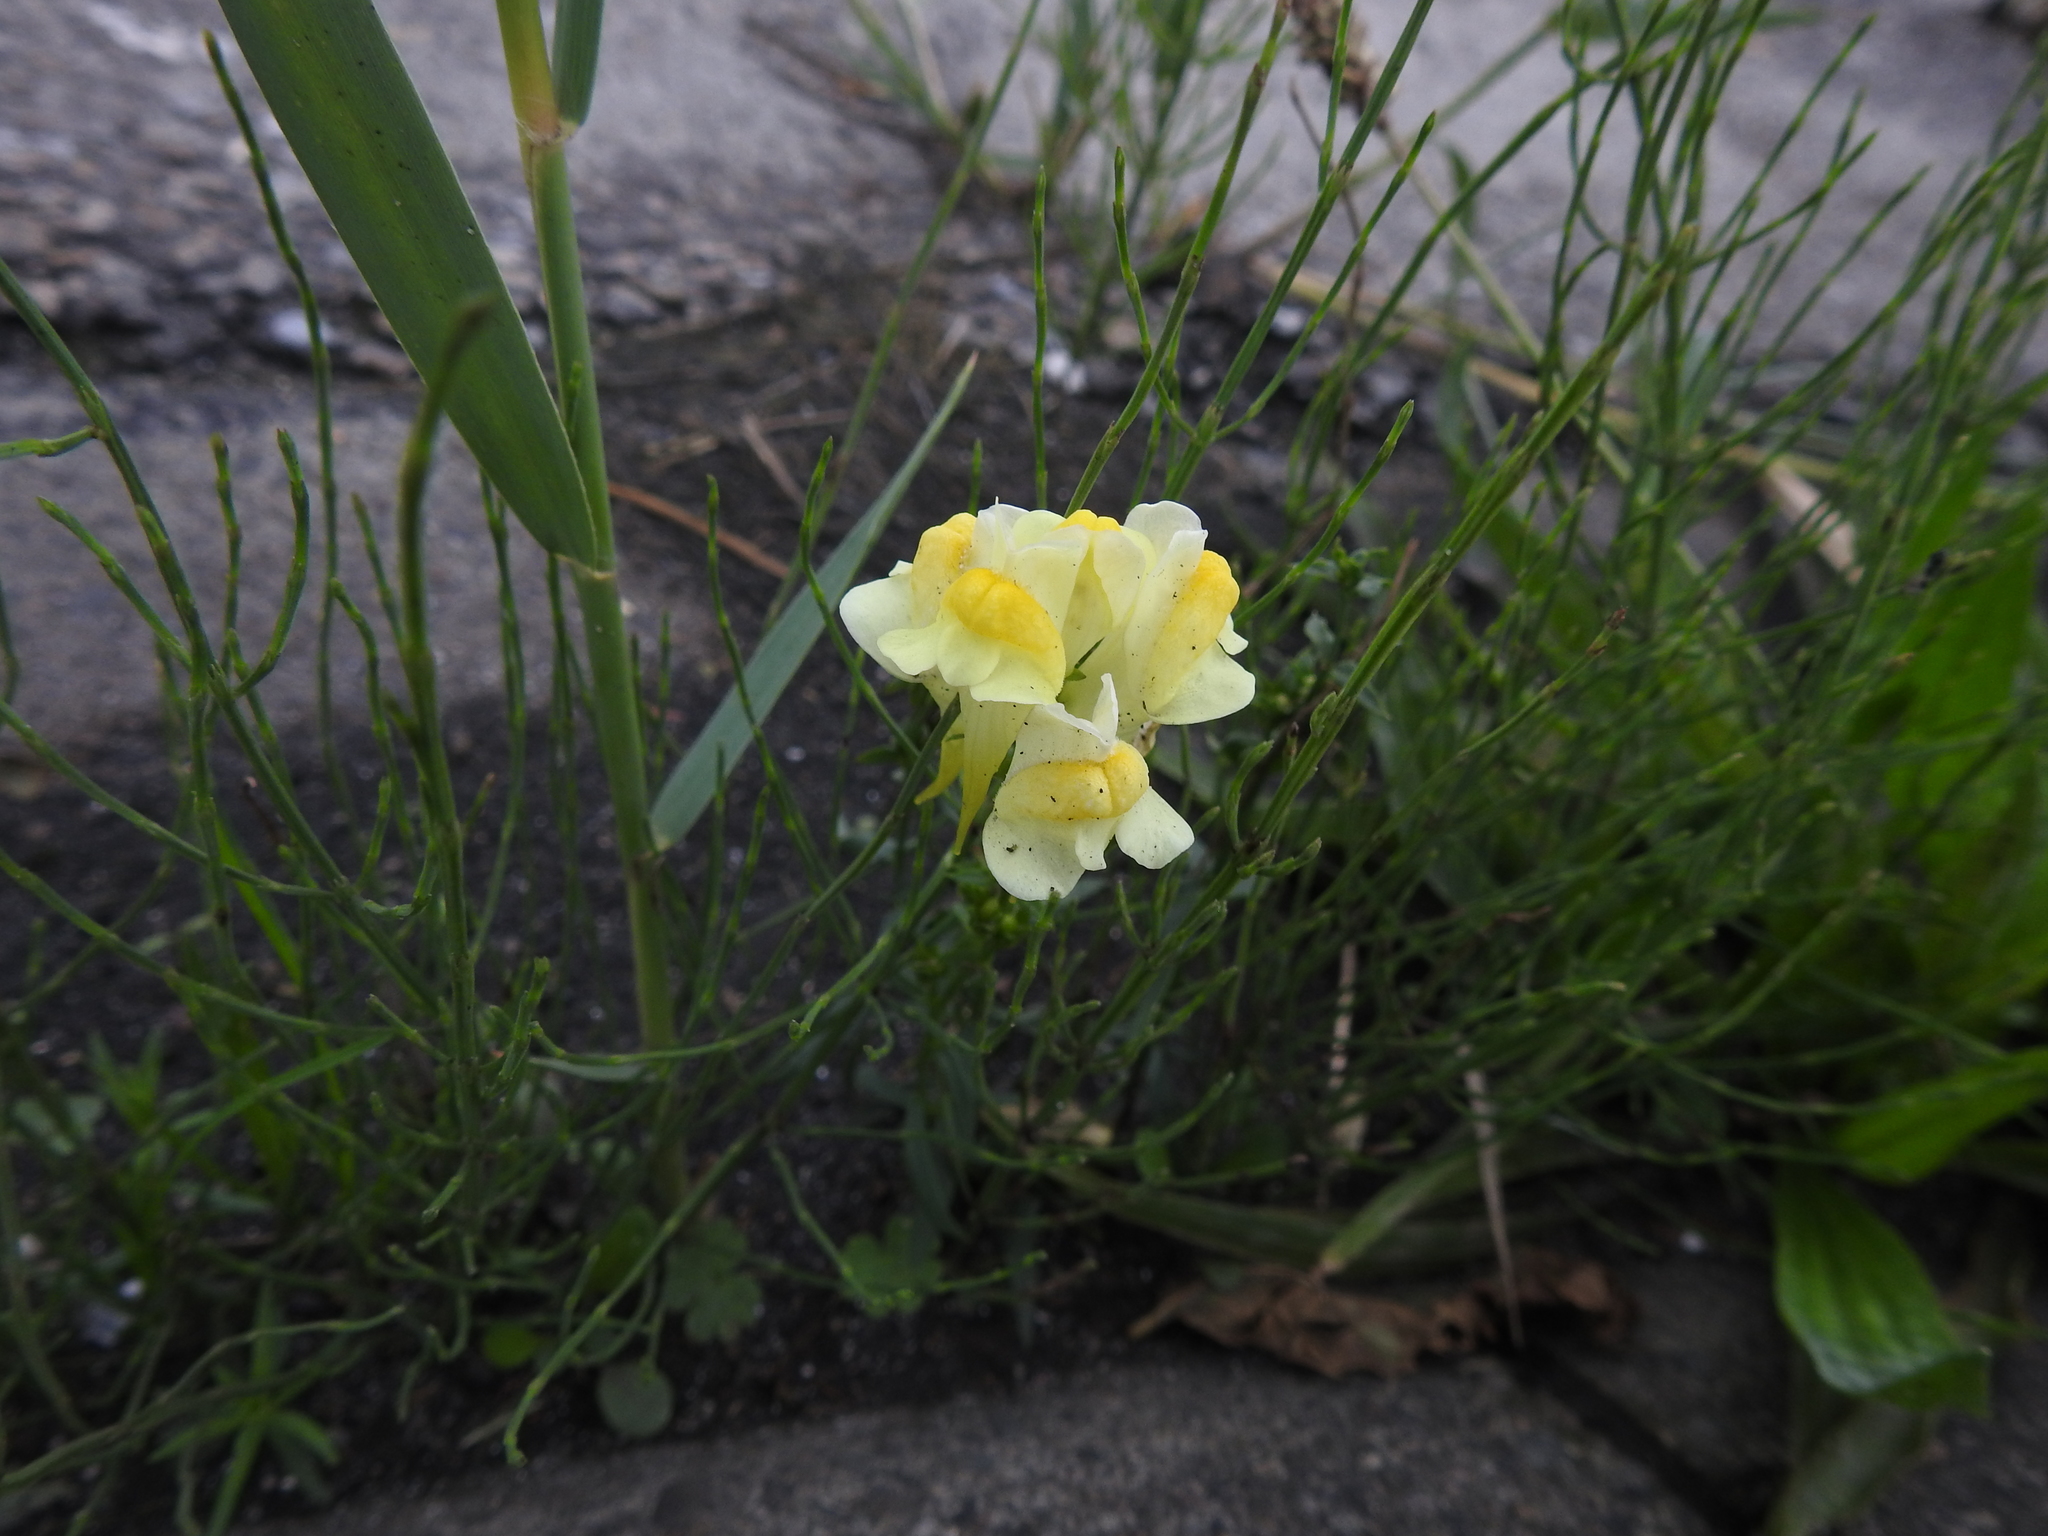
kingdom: Plantae
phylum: Tracheophyta
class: Magnoliopsida
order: Lamiales
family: Plantaginaceae
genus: Linaria
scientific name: Linaria vulgaris
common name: Butter and eggs
